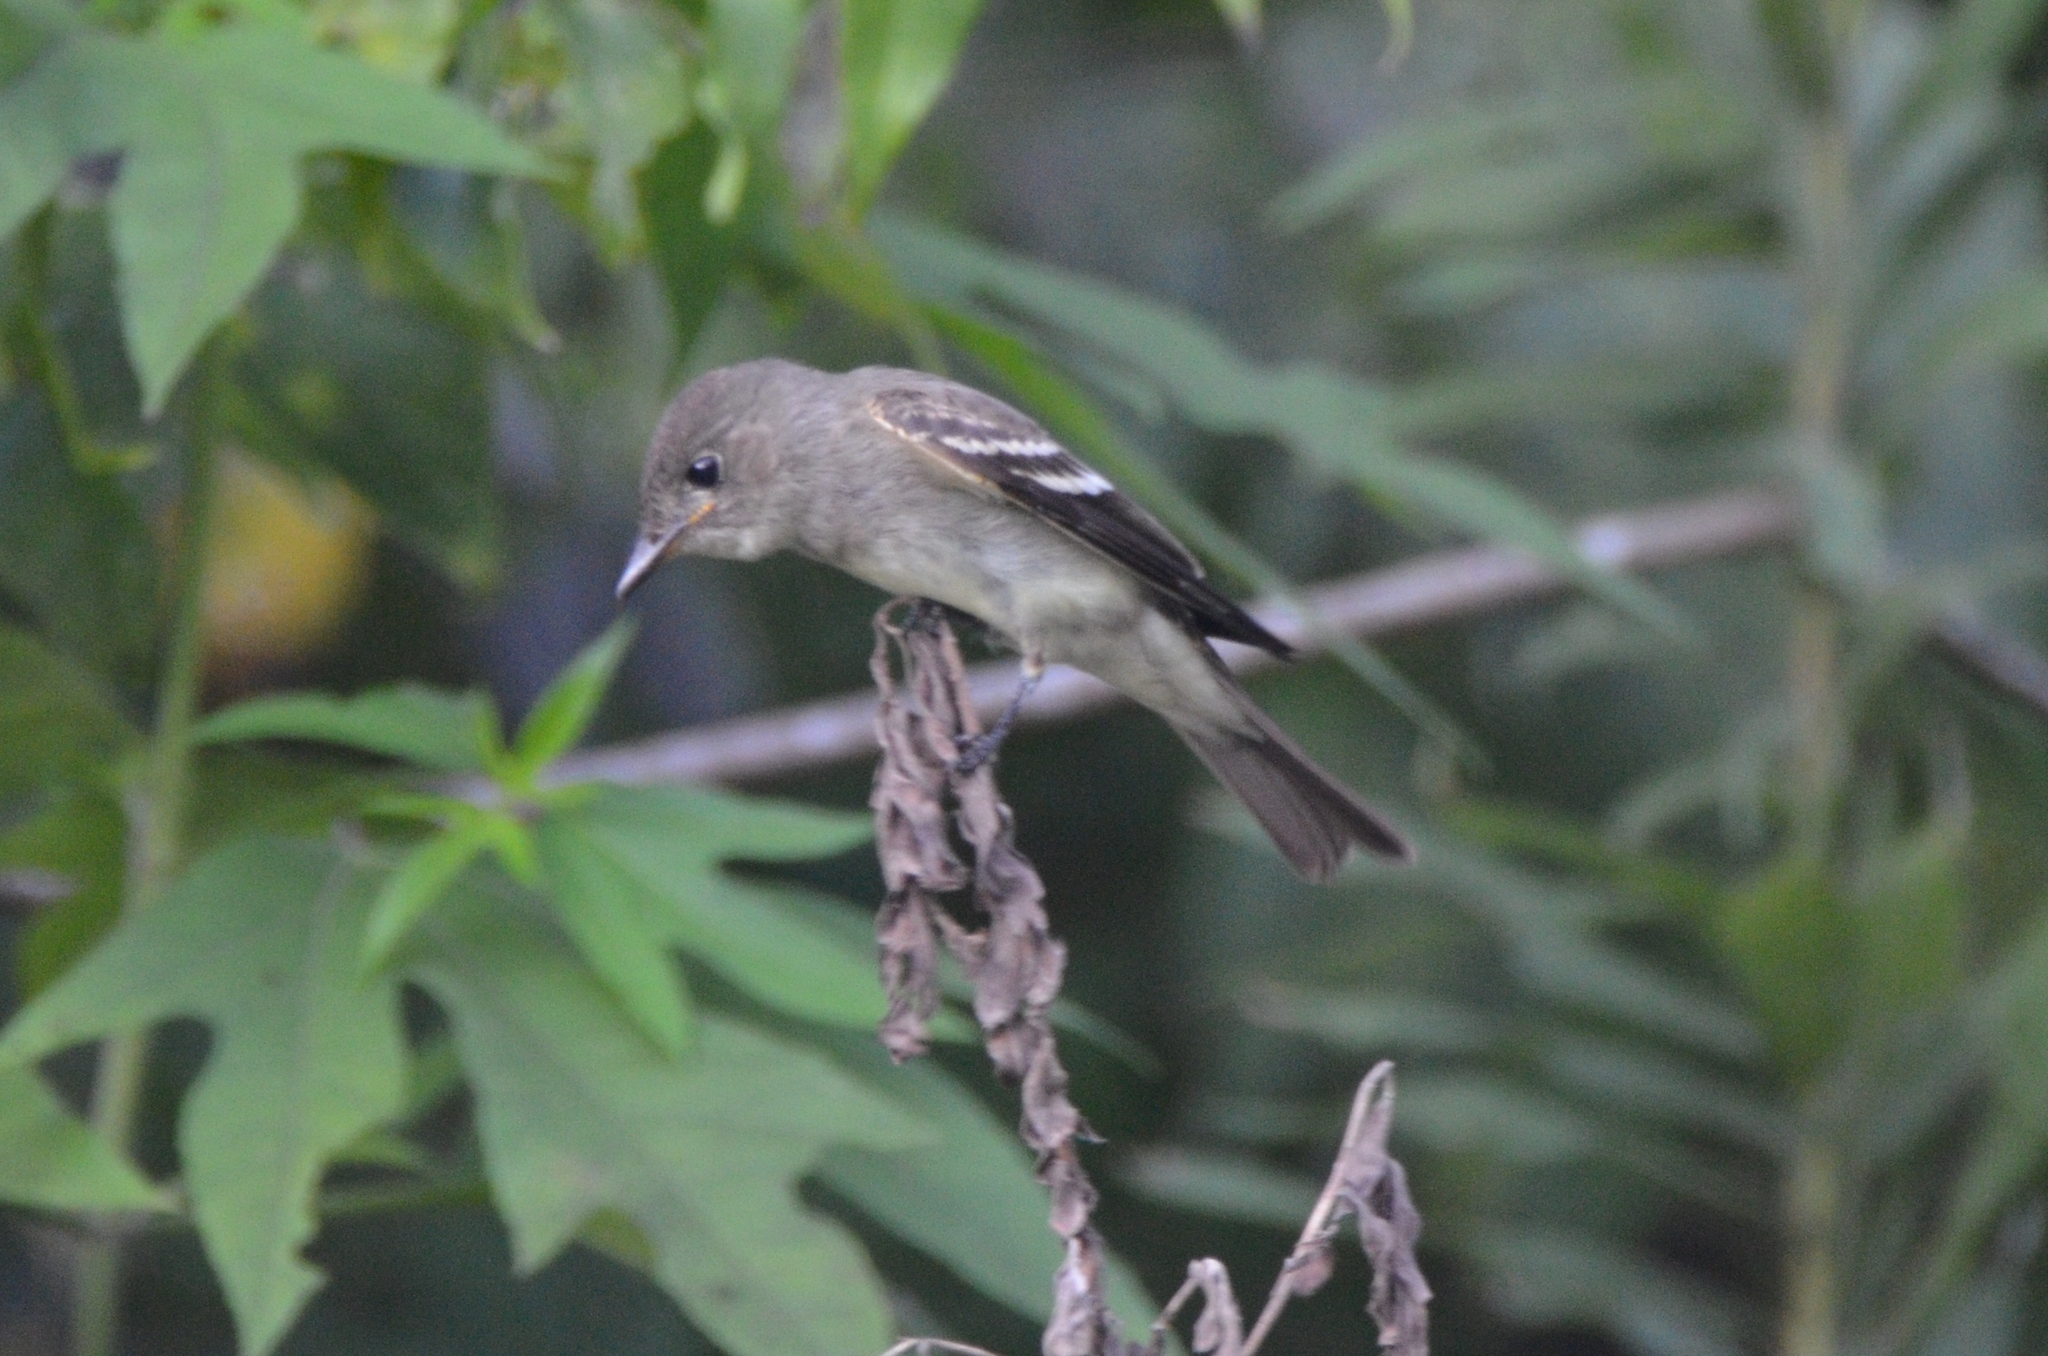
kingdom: Animalia
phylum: Chordata
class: Aves
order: Passeriformes
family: Tyrannidae
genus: Contopus
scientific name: Contopus virens
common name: Eastern wood-pewee
